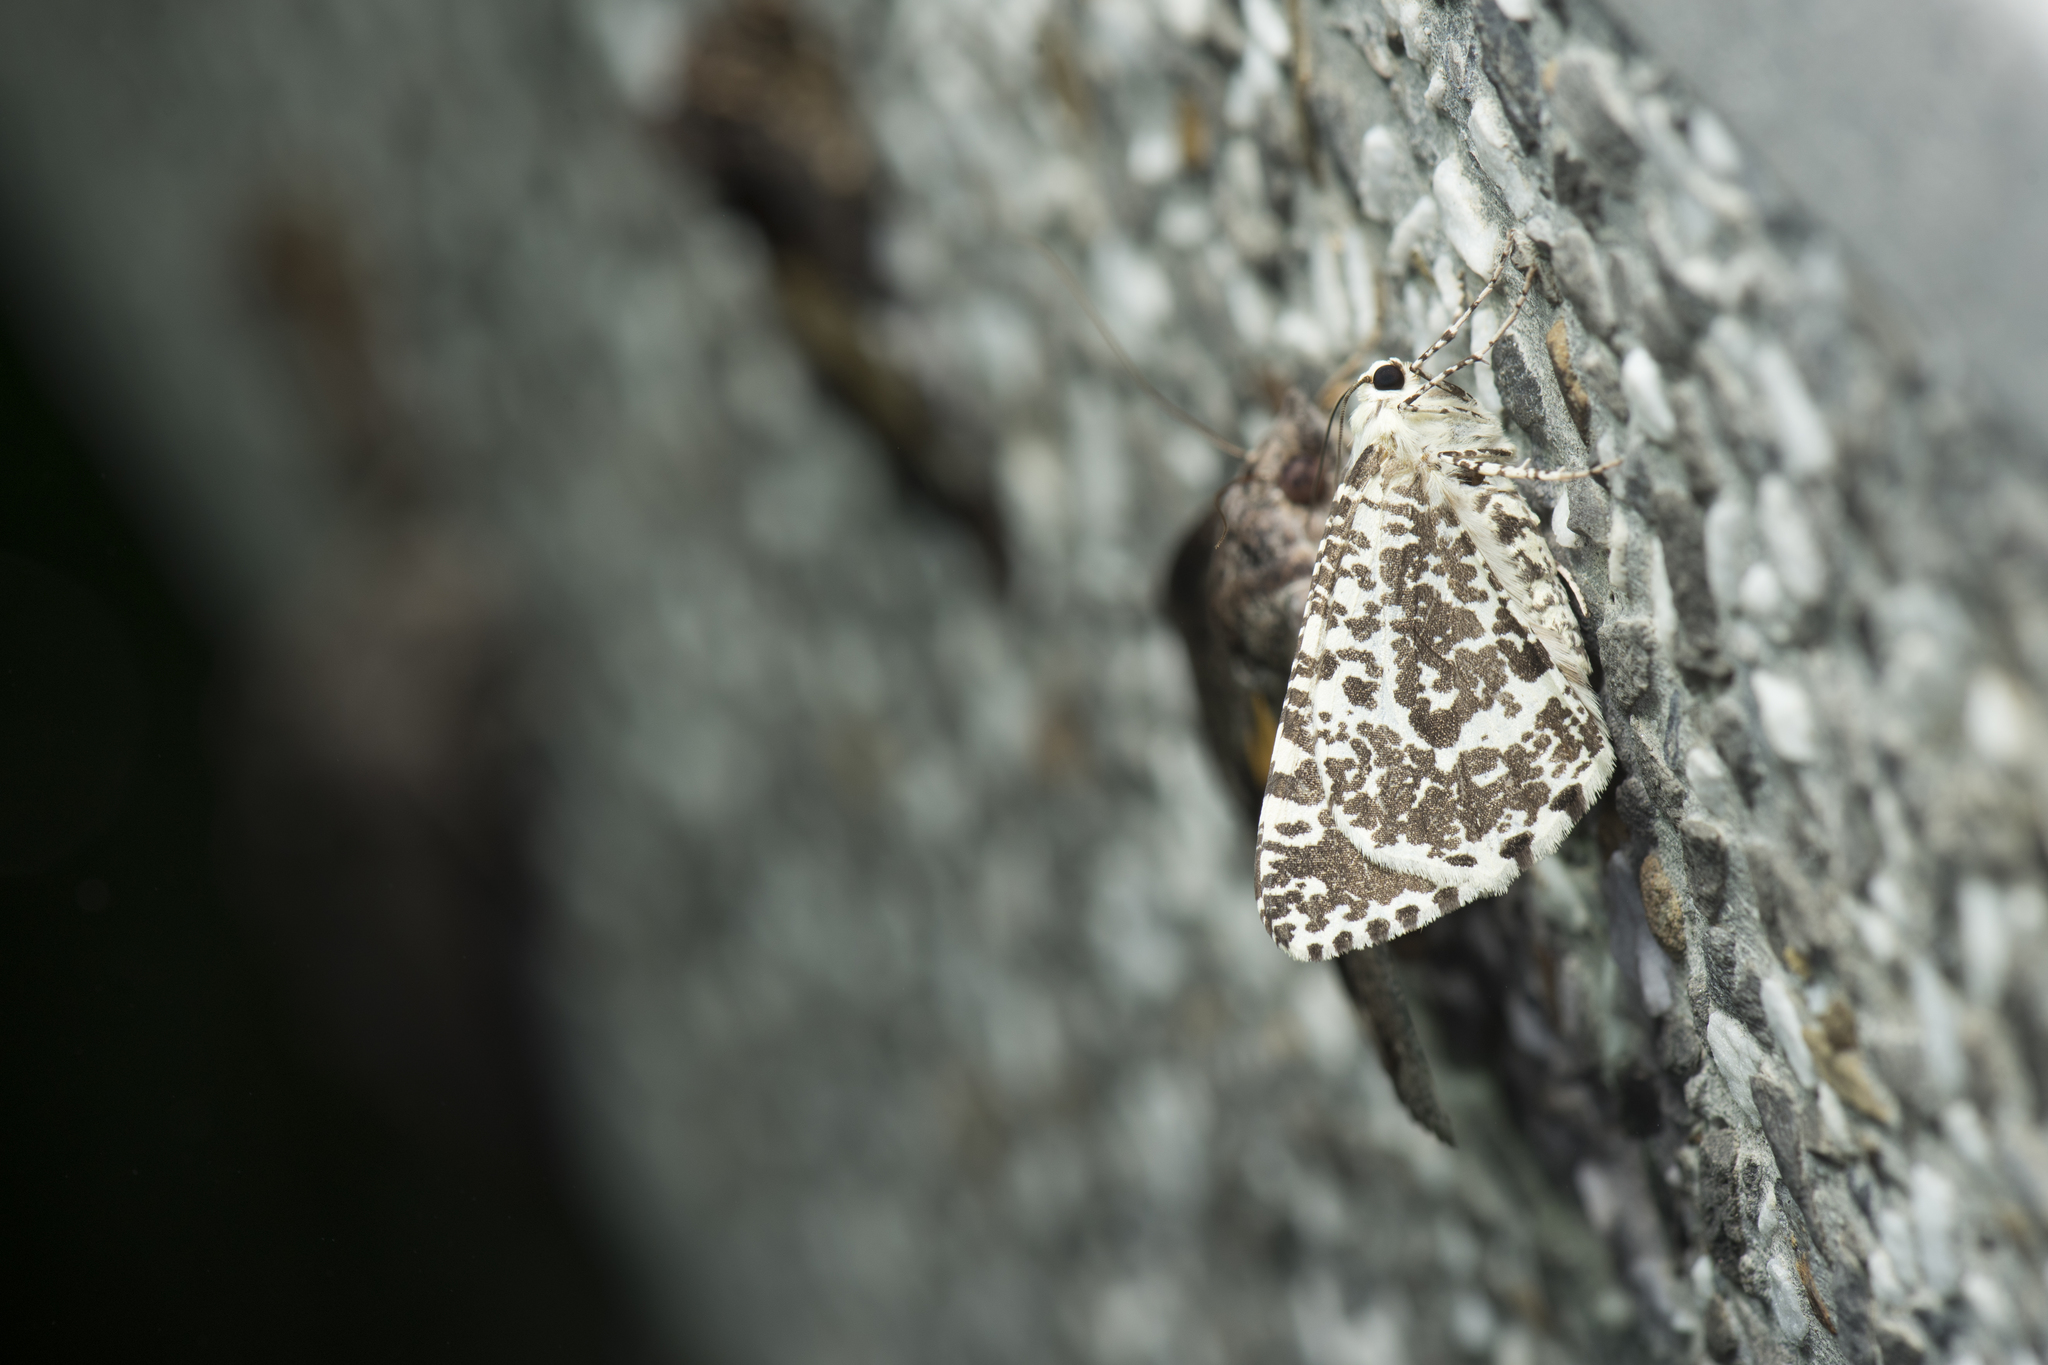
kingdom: Animalia
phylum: Arthropoda
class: Insecta
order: Lepidoptera
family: Geometridae
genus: Ourapteryx
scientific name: Ourapteryx variolaria
